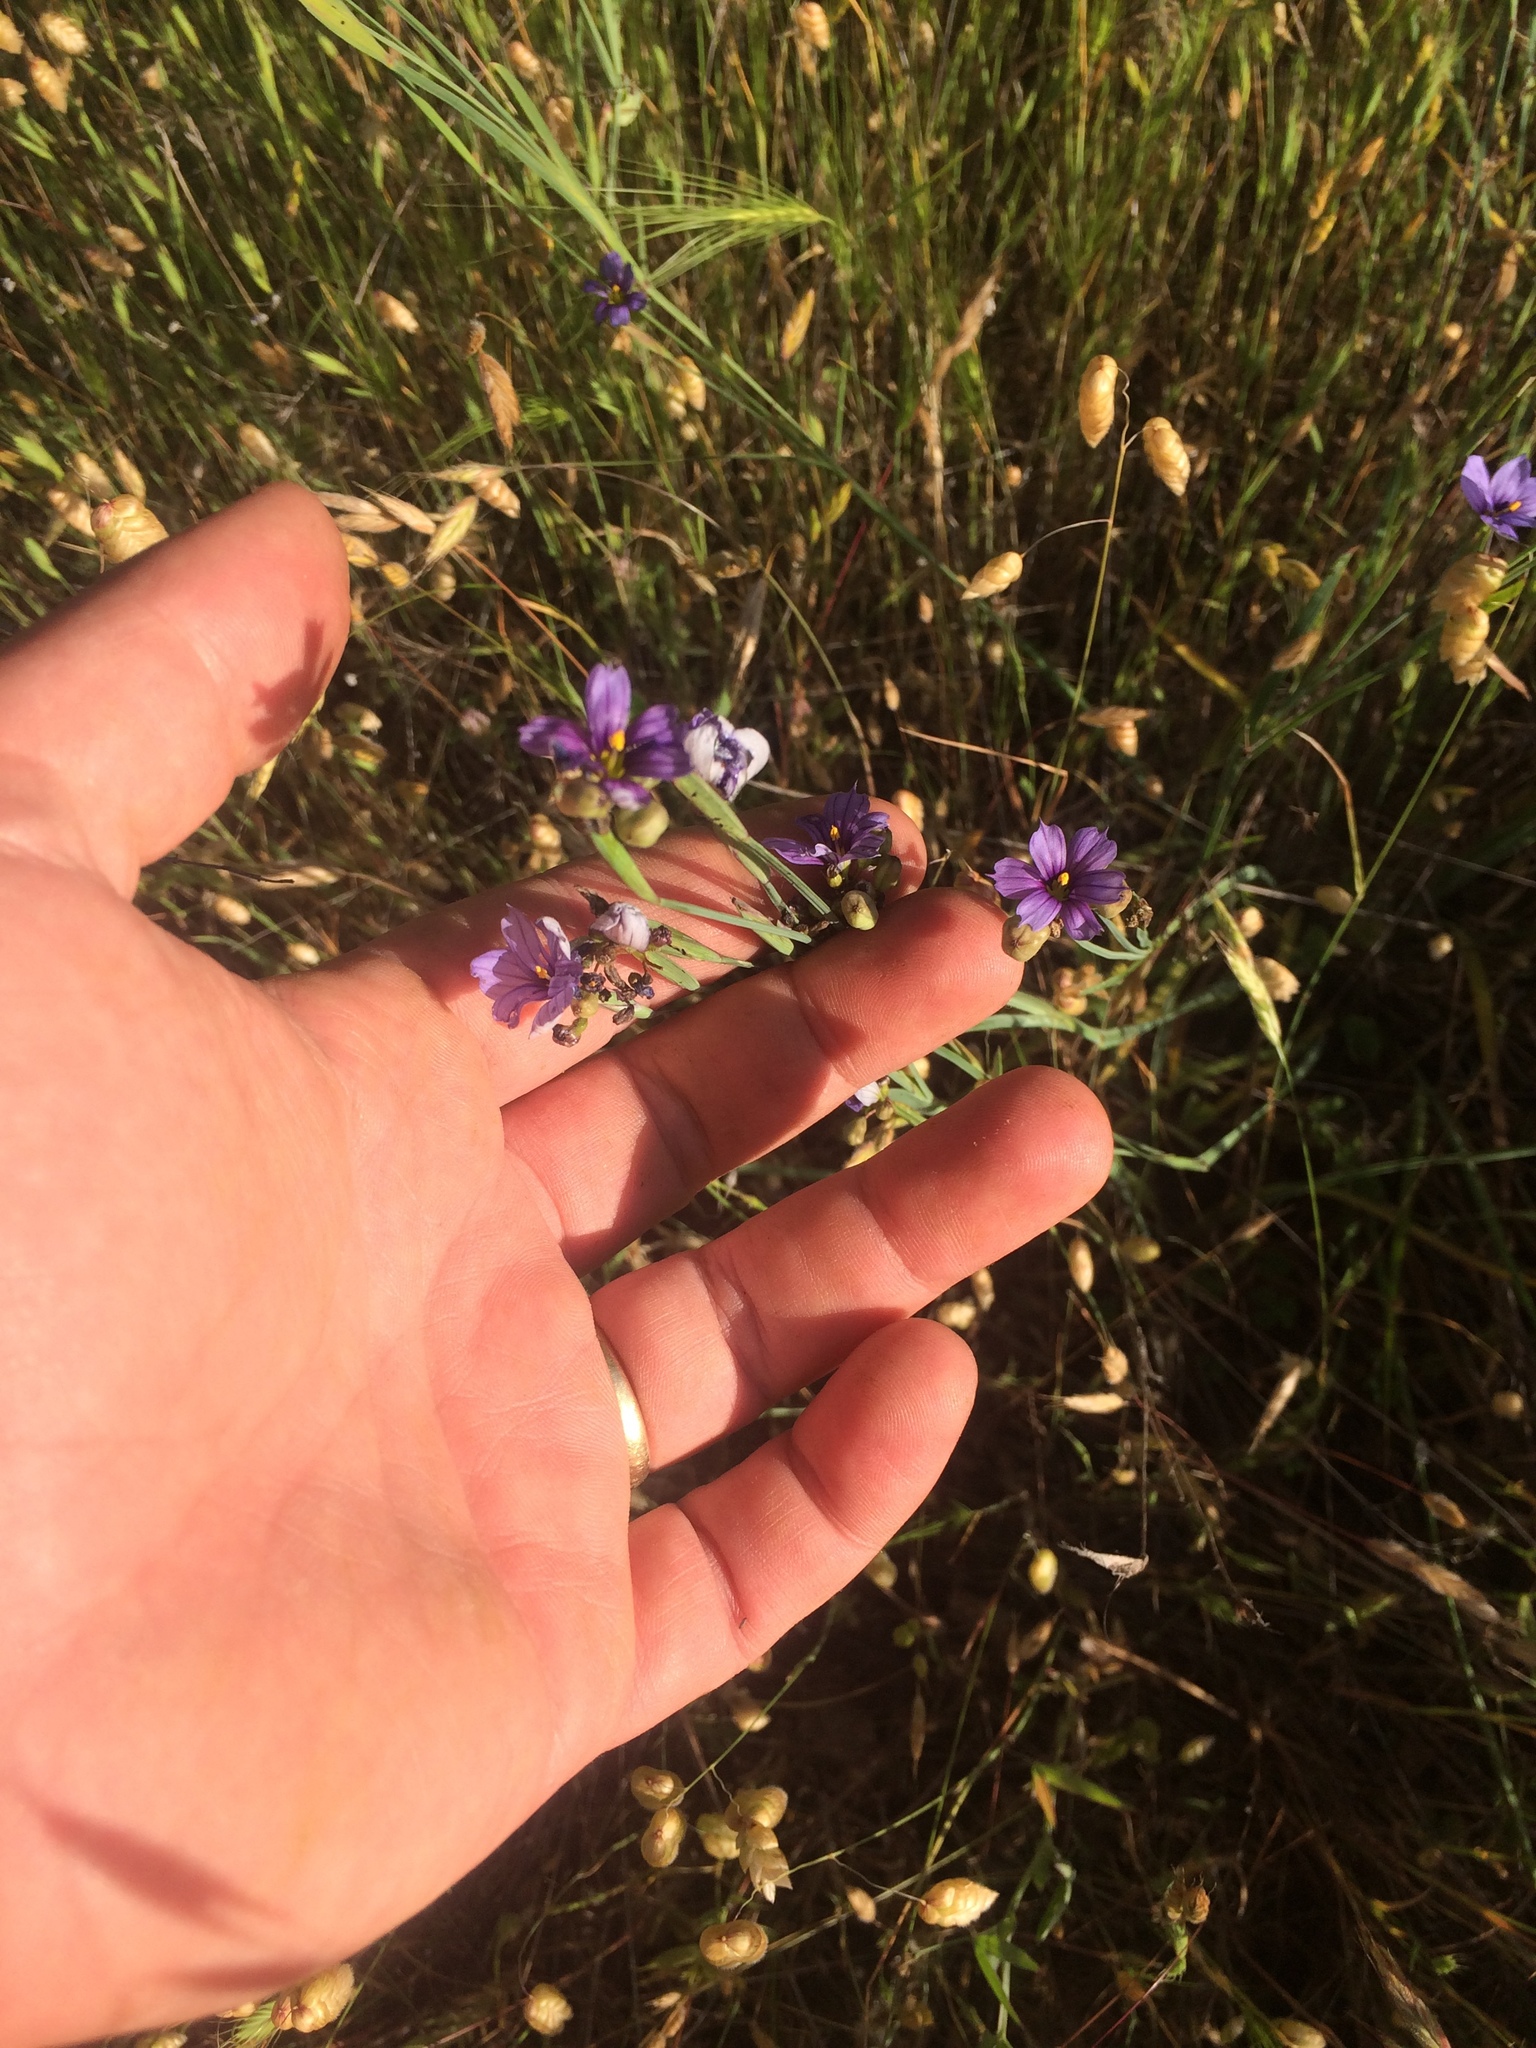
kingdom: Plantae
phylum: Tracheophyta
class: Liliopsida
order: Asparagales
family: Iridaceae
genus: Sisyrinchium
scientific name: Sisyrinchium bellum
